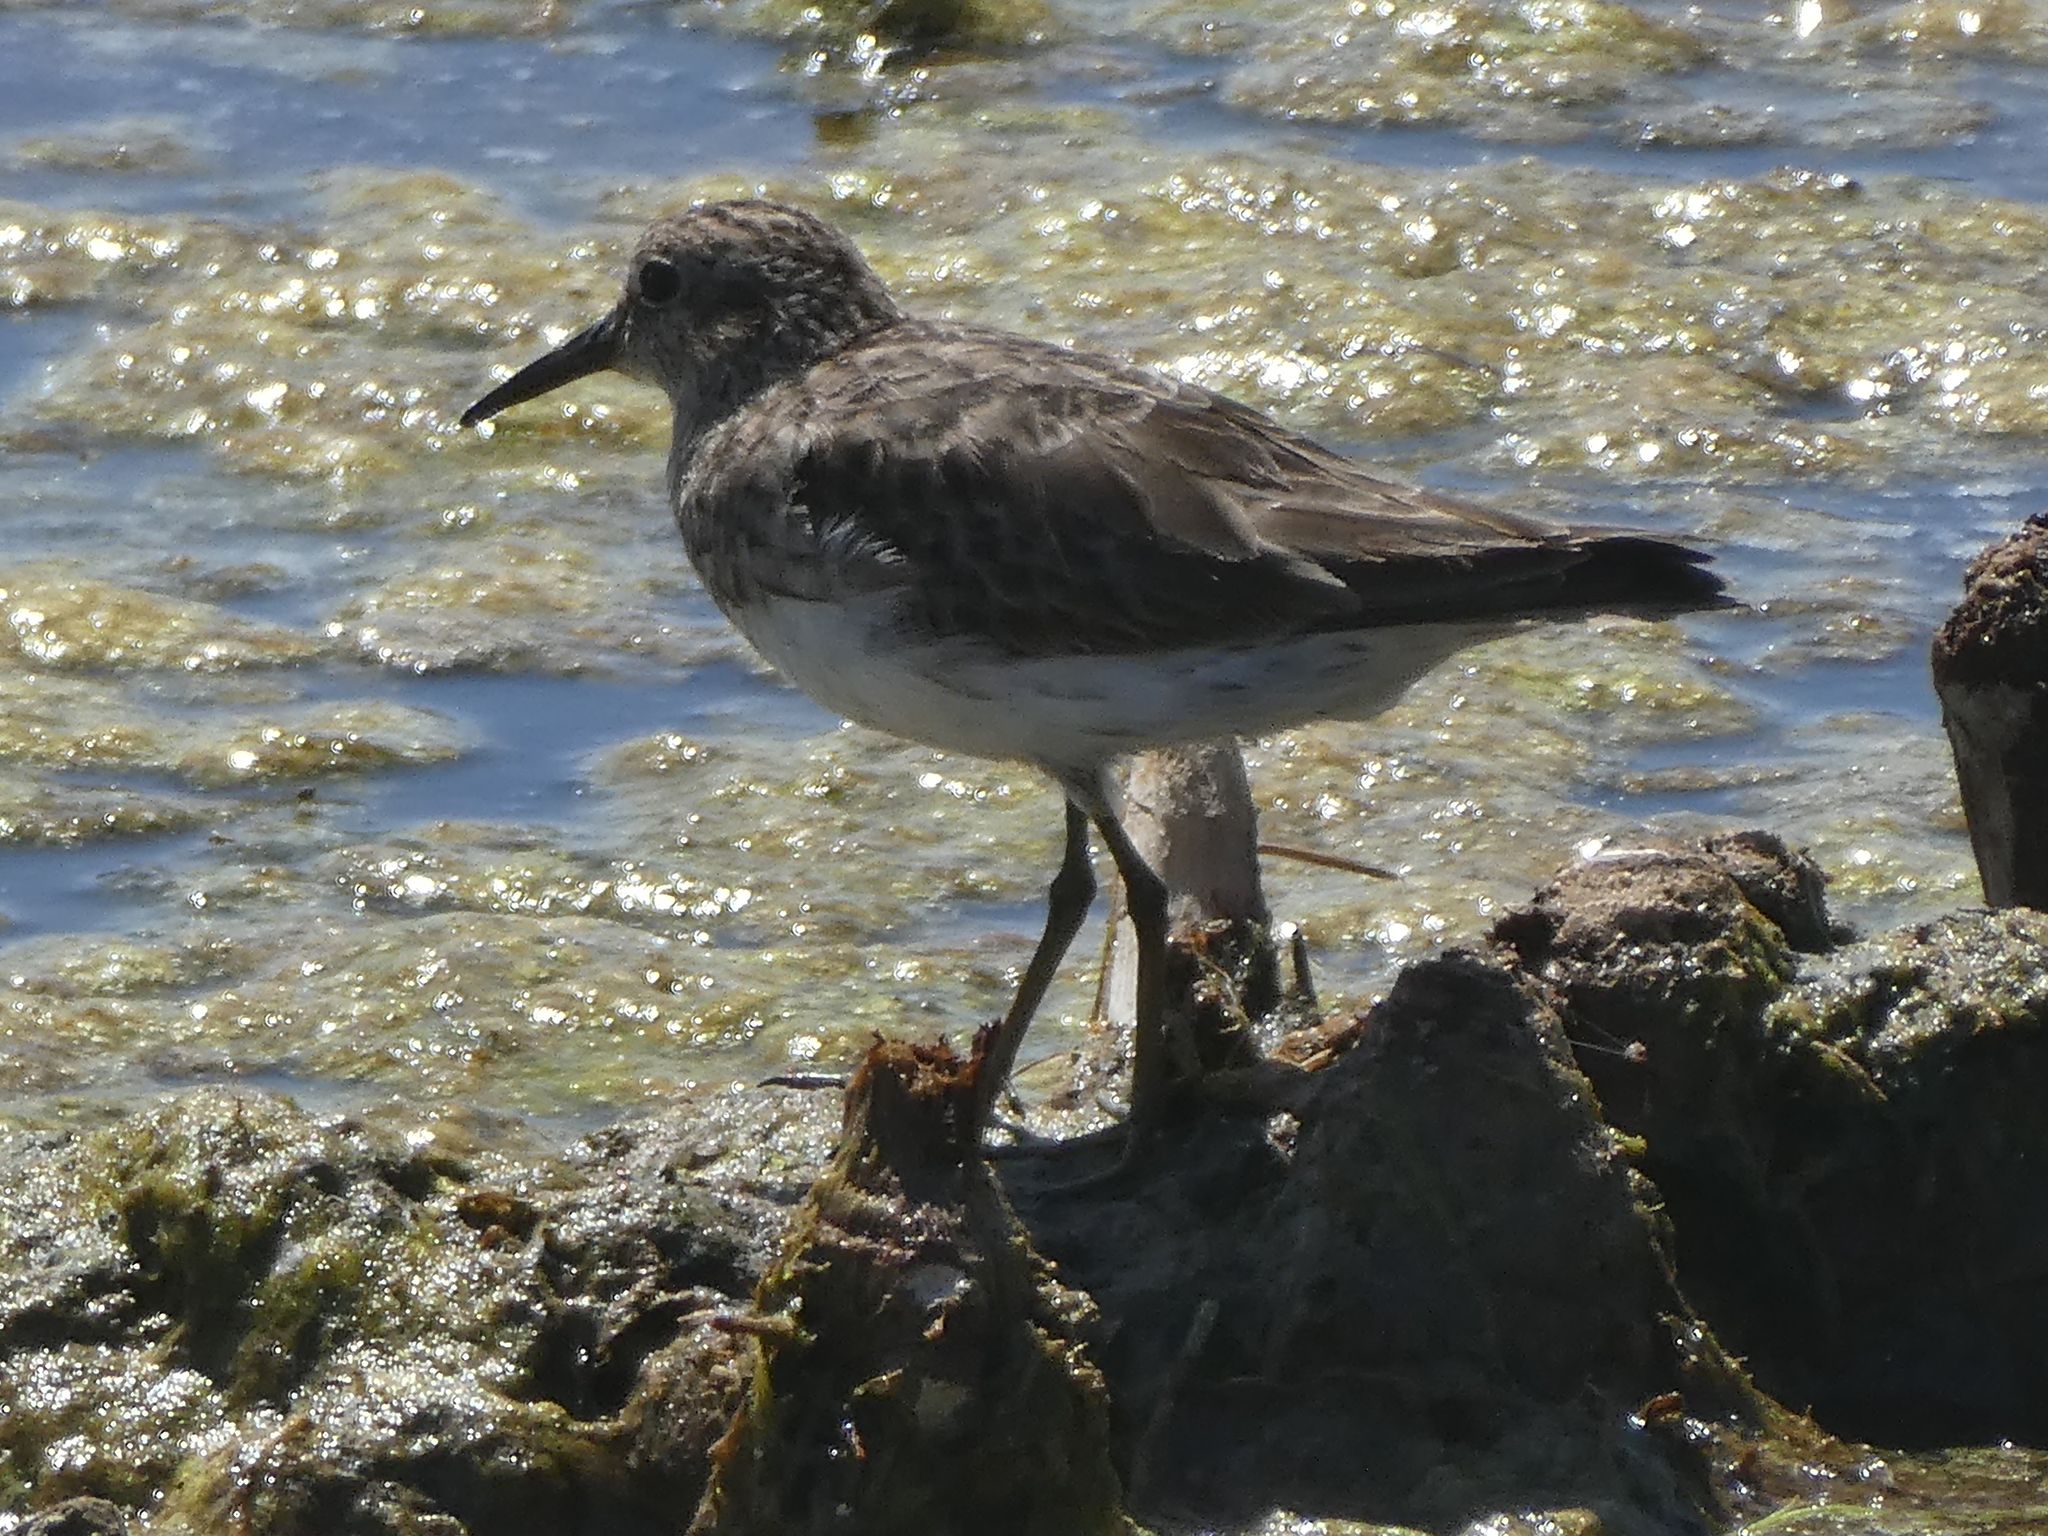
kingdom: Animalia
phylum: Chordata
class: Aves
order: Charadriiformes
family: Scolopacidae
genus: Calidris
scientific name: Calidris minutilla
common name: Least sandpiper
